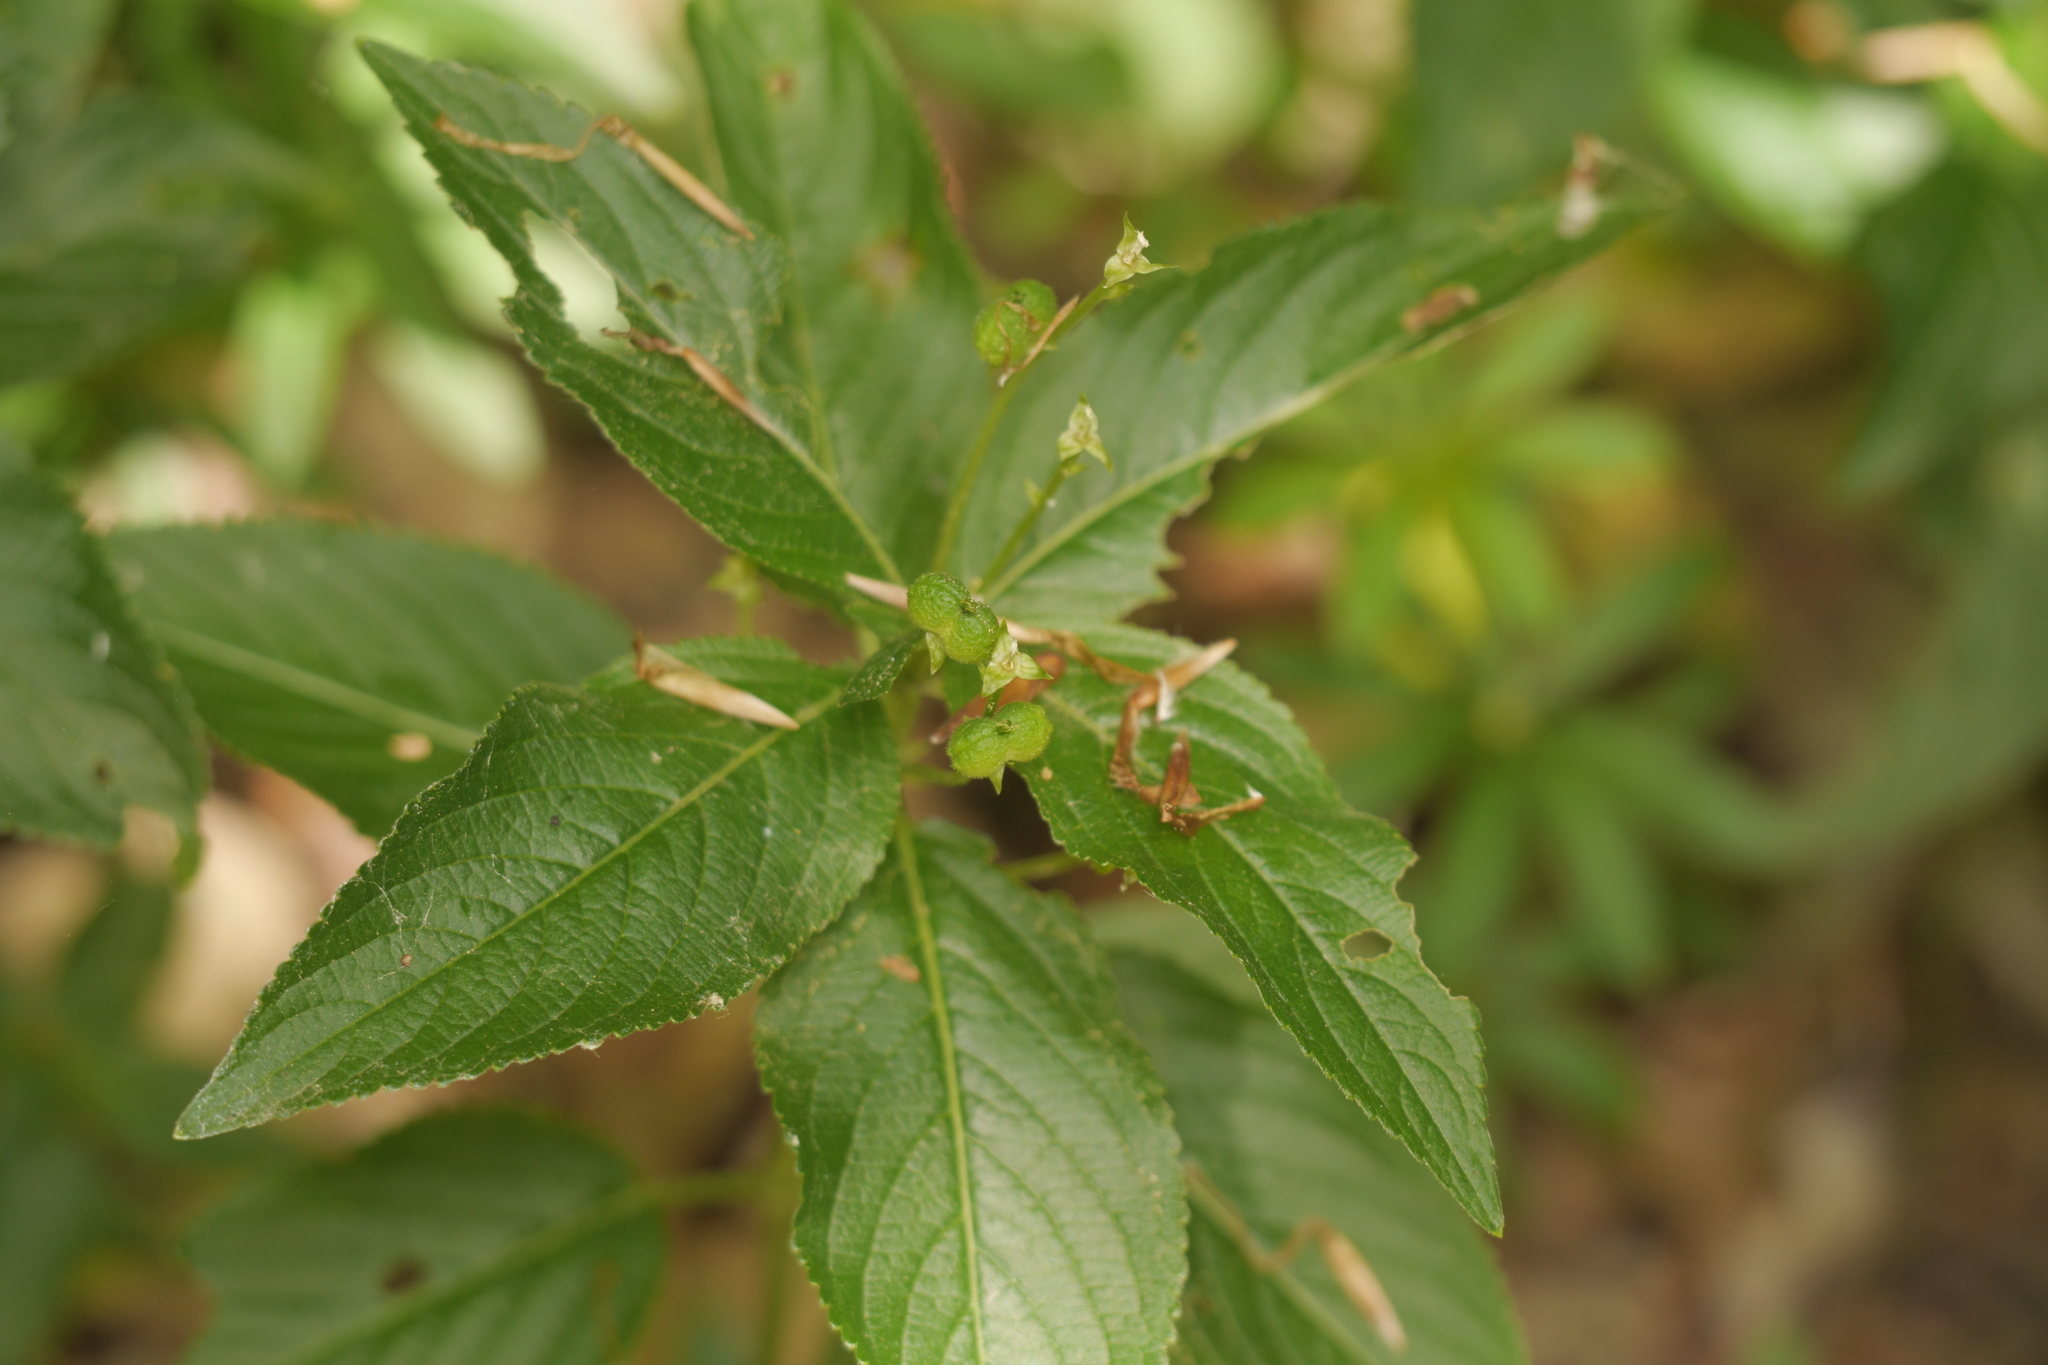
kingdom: Plantae
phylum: Tracheophyta
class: Magnoliopsida
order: Malpighiales
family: Euphorbiaceae
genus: Mercurialis
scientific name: Mercurialis perennis
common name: Dog mercury
